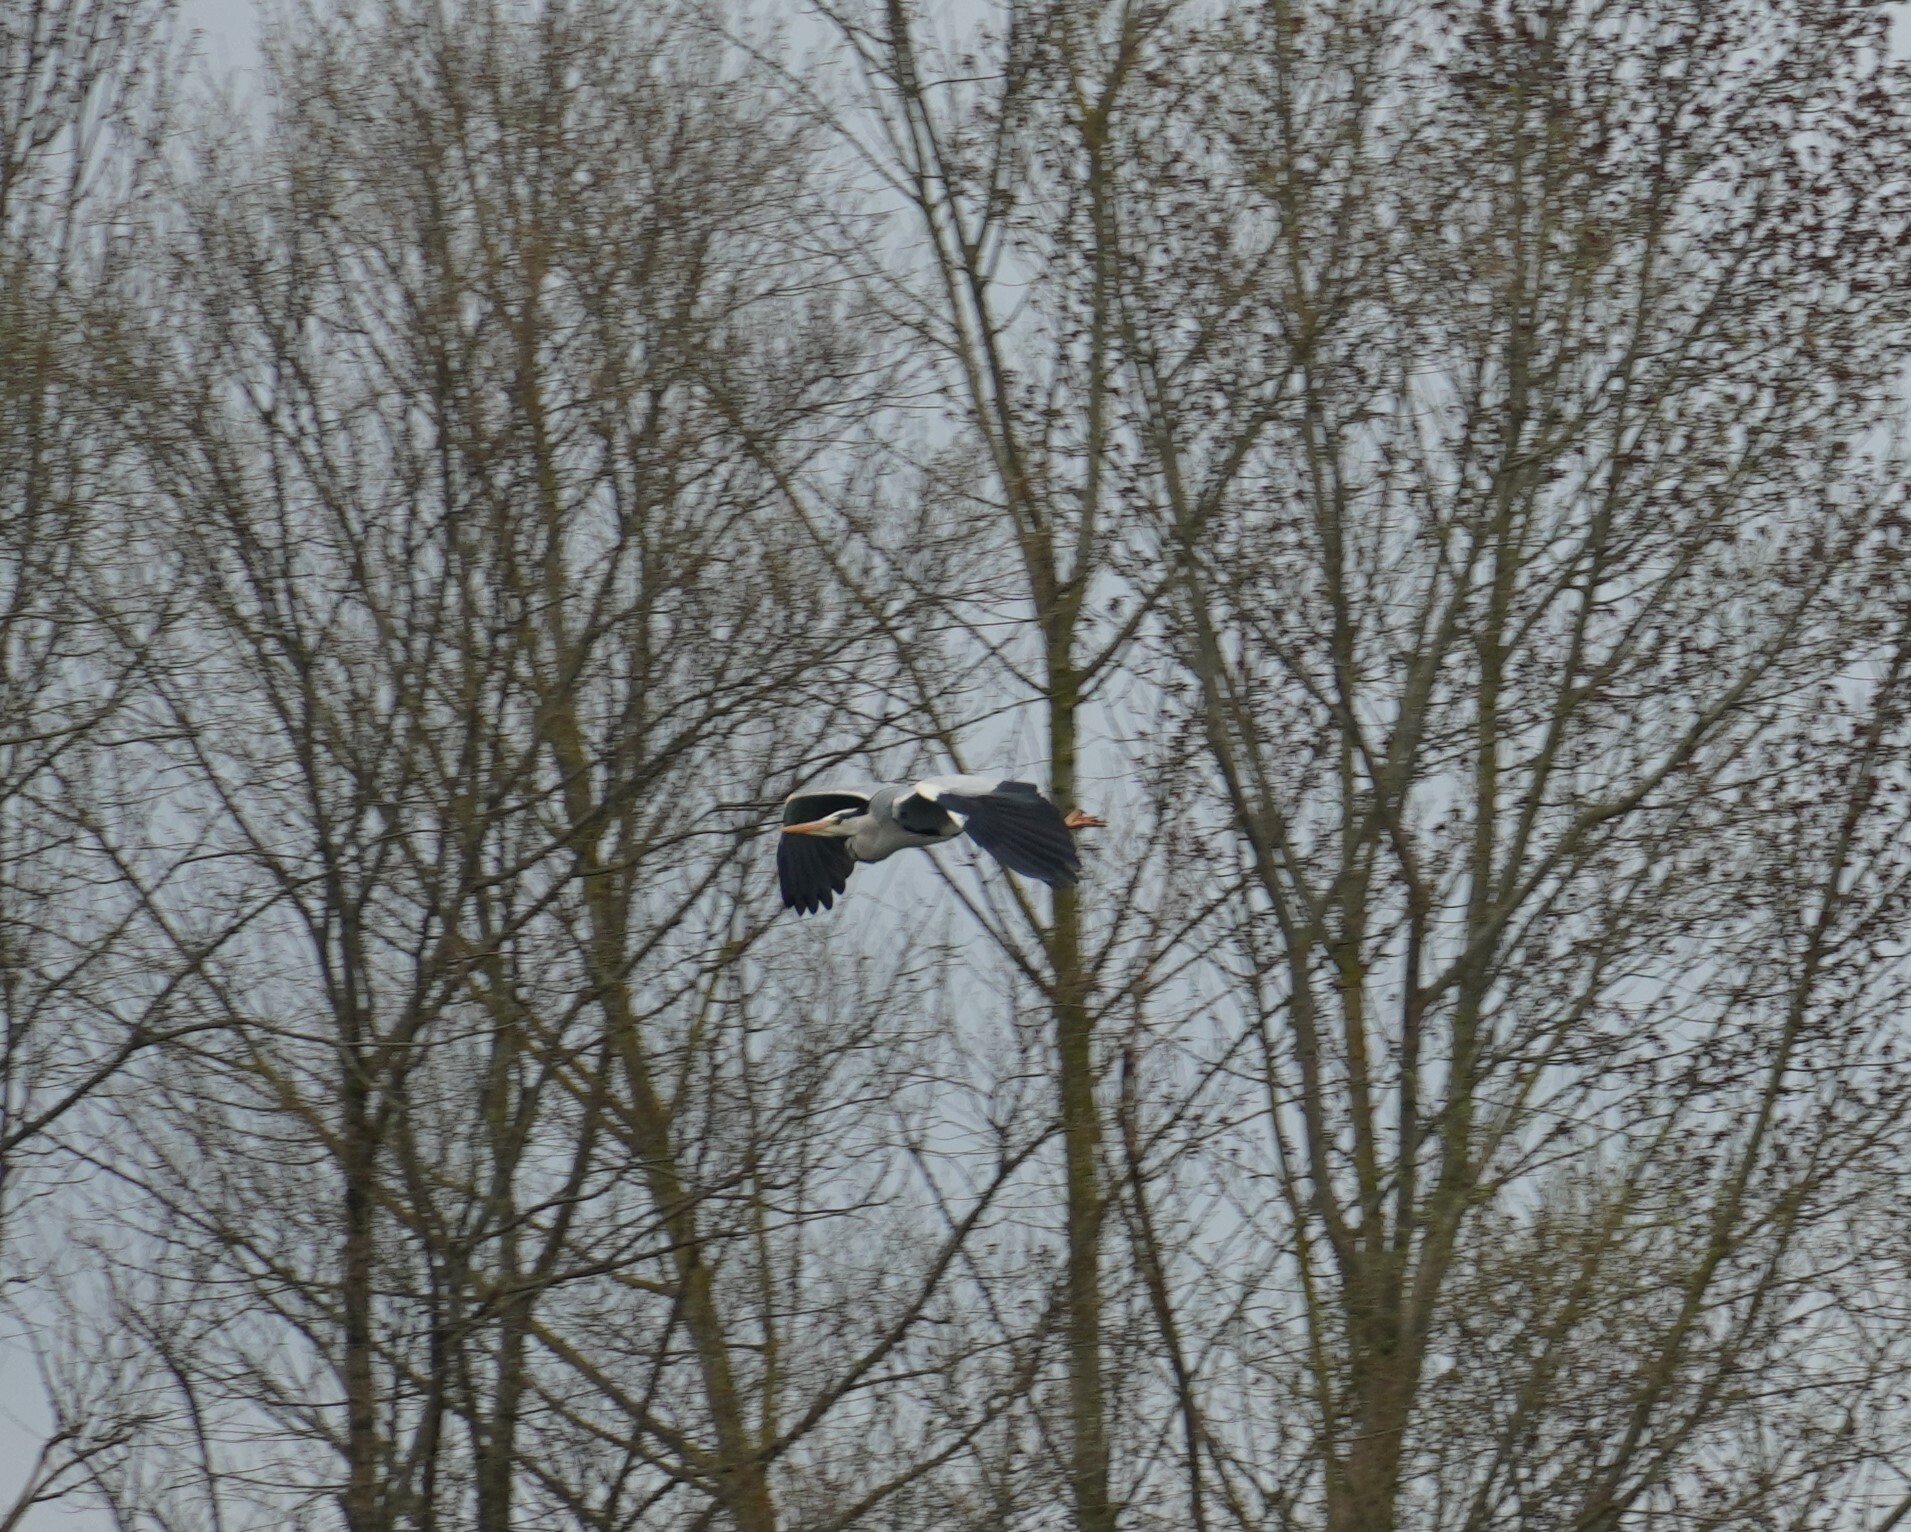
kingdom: Animalia
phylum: Chordata
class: Aves
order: Pelecaniformes
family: Ardeidae
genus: Ardea
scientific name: Ardea cinerea
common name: Grey heron
